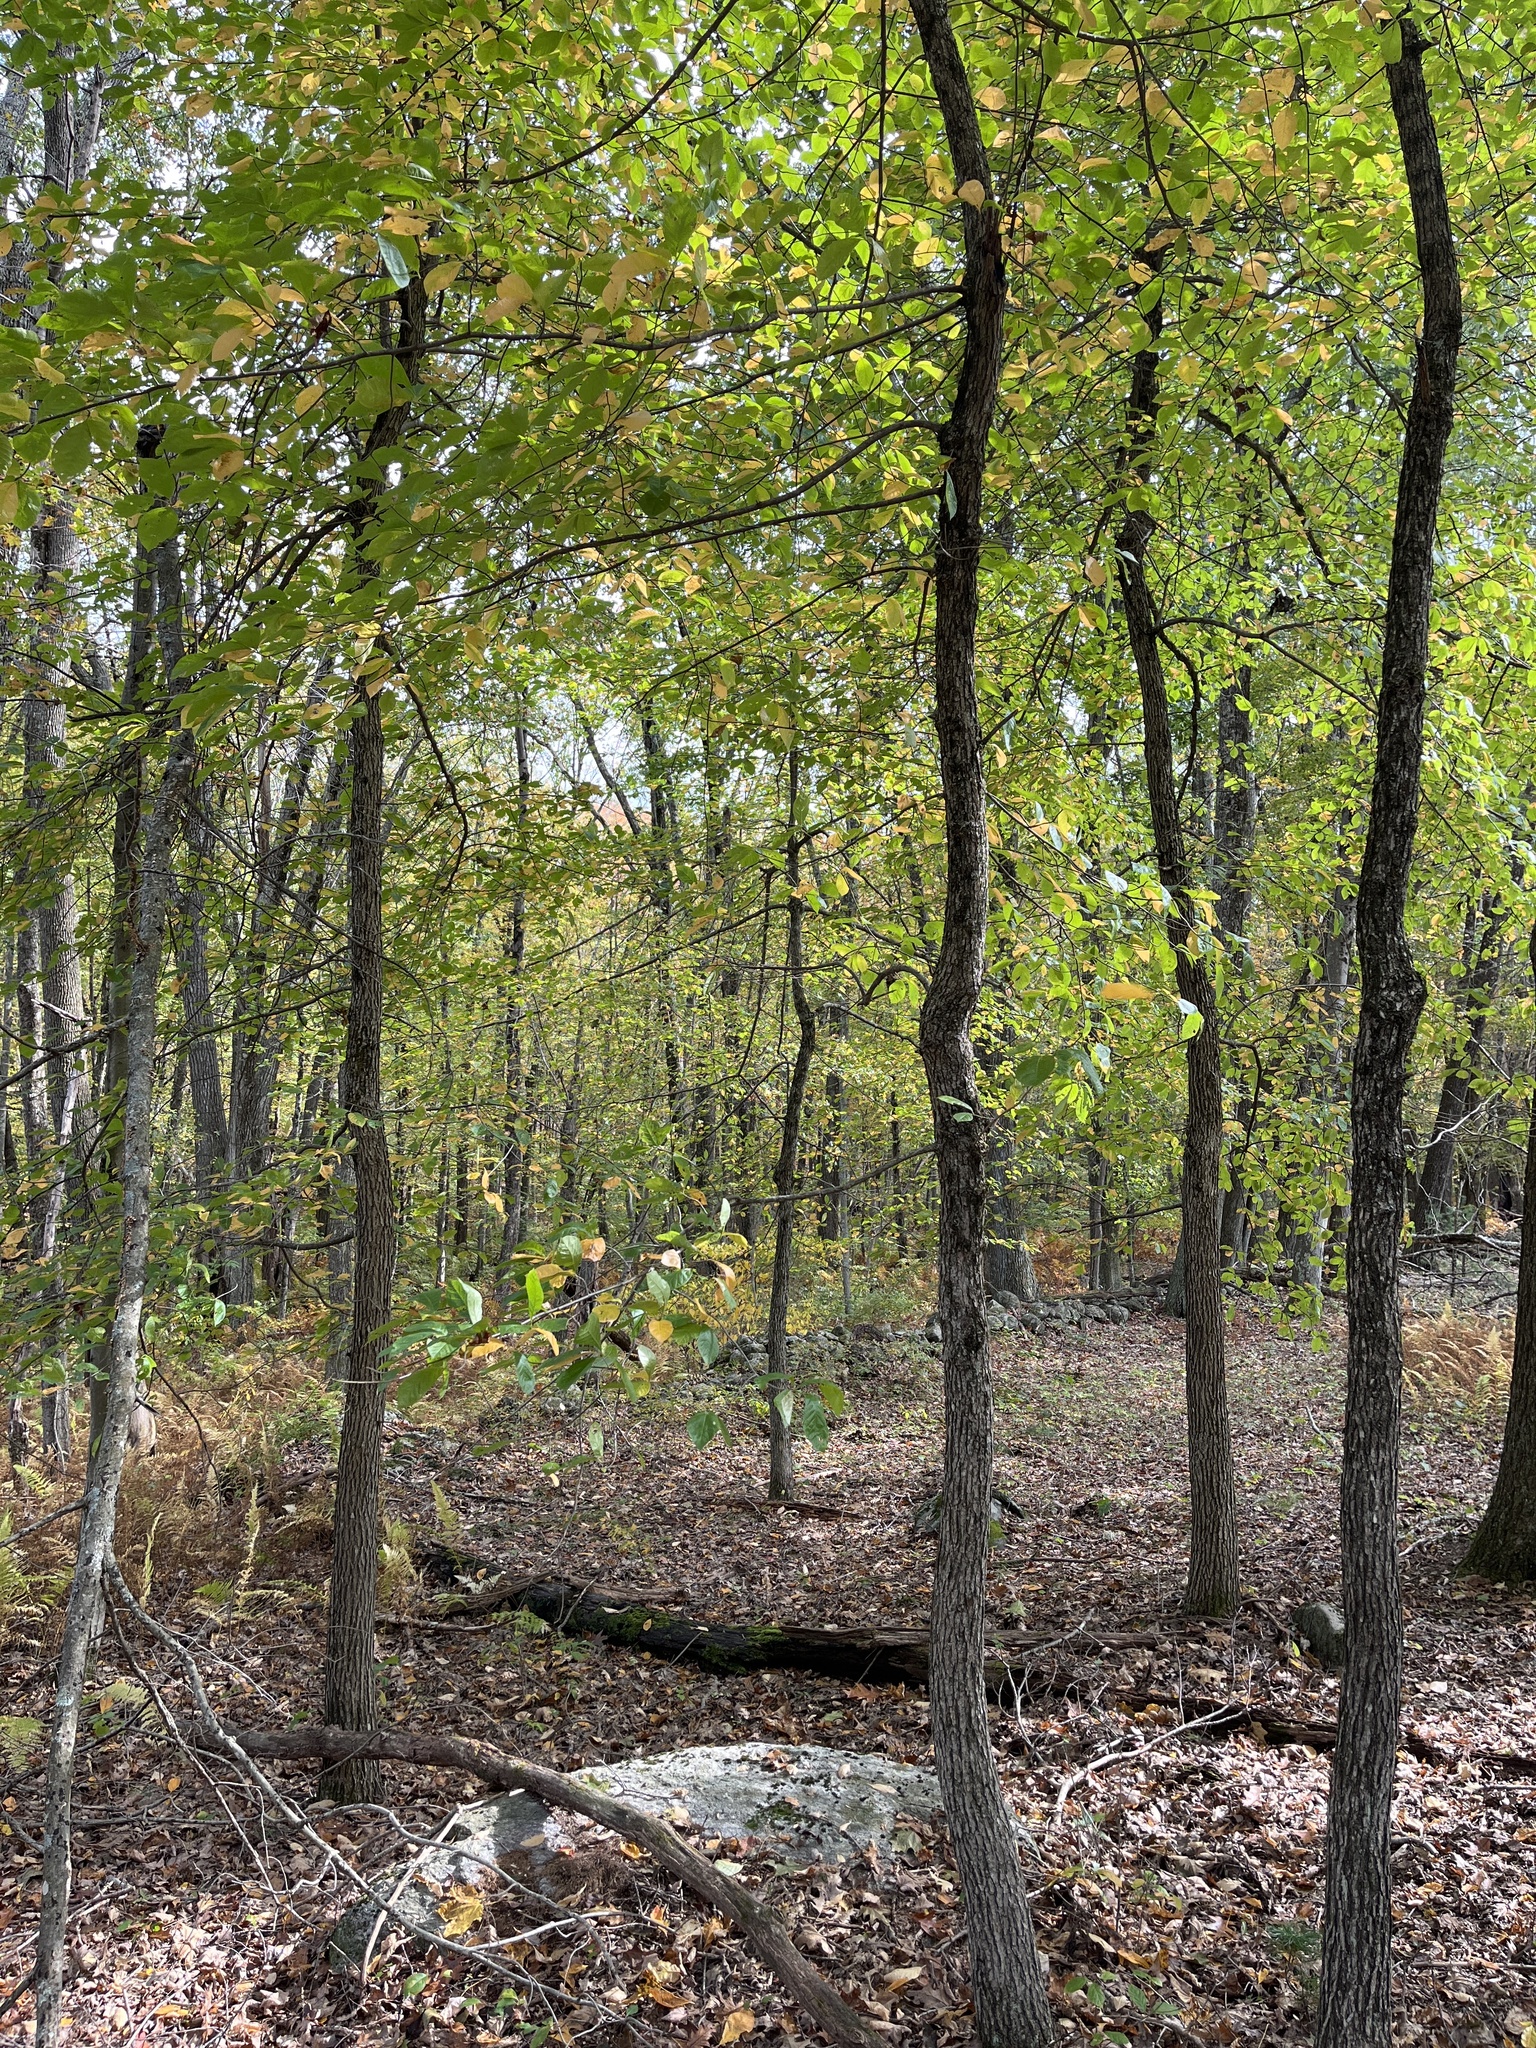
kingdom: Plantae
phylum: Tracheophyta
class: Magnoliopsida
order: Cornales
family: Nyssaceae
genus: Nyssa
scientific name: Nyssa sylvatica
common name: Black tupelo
